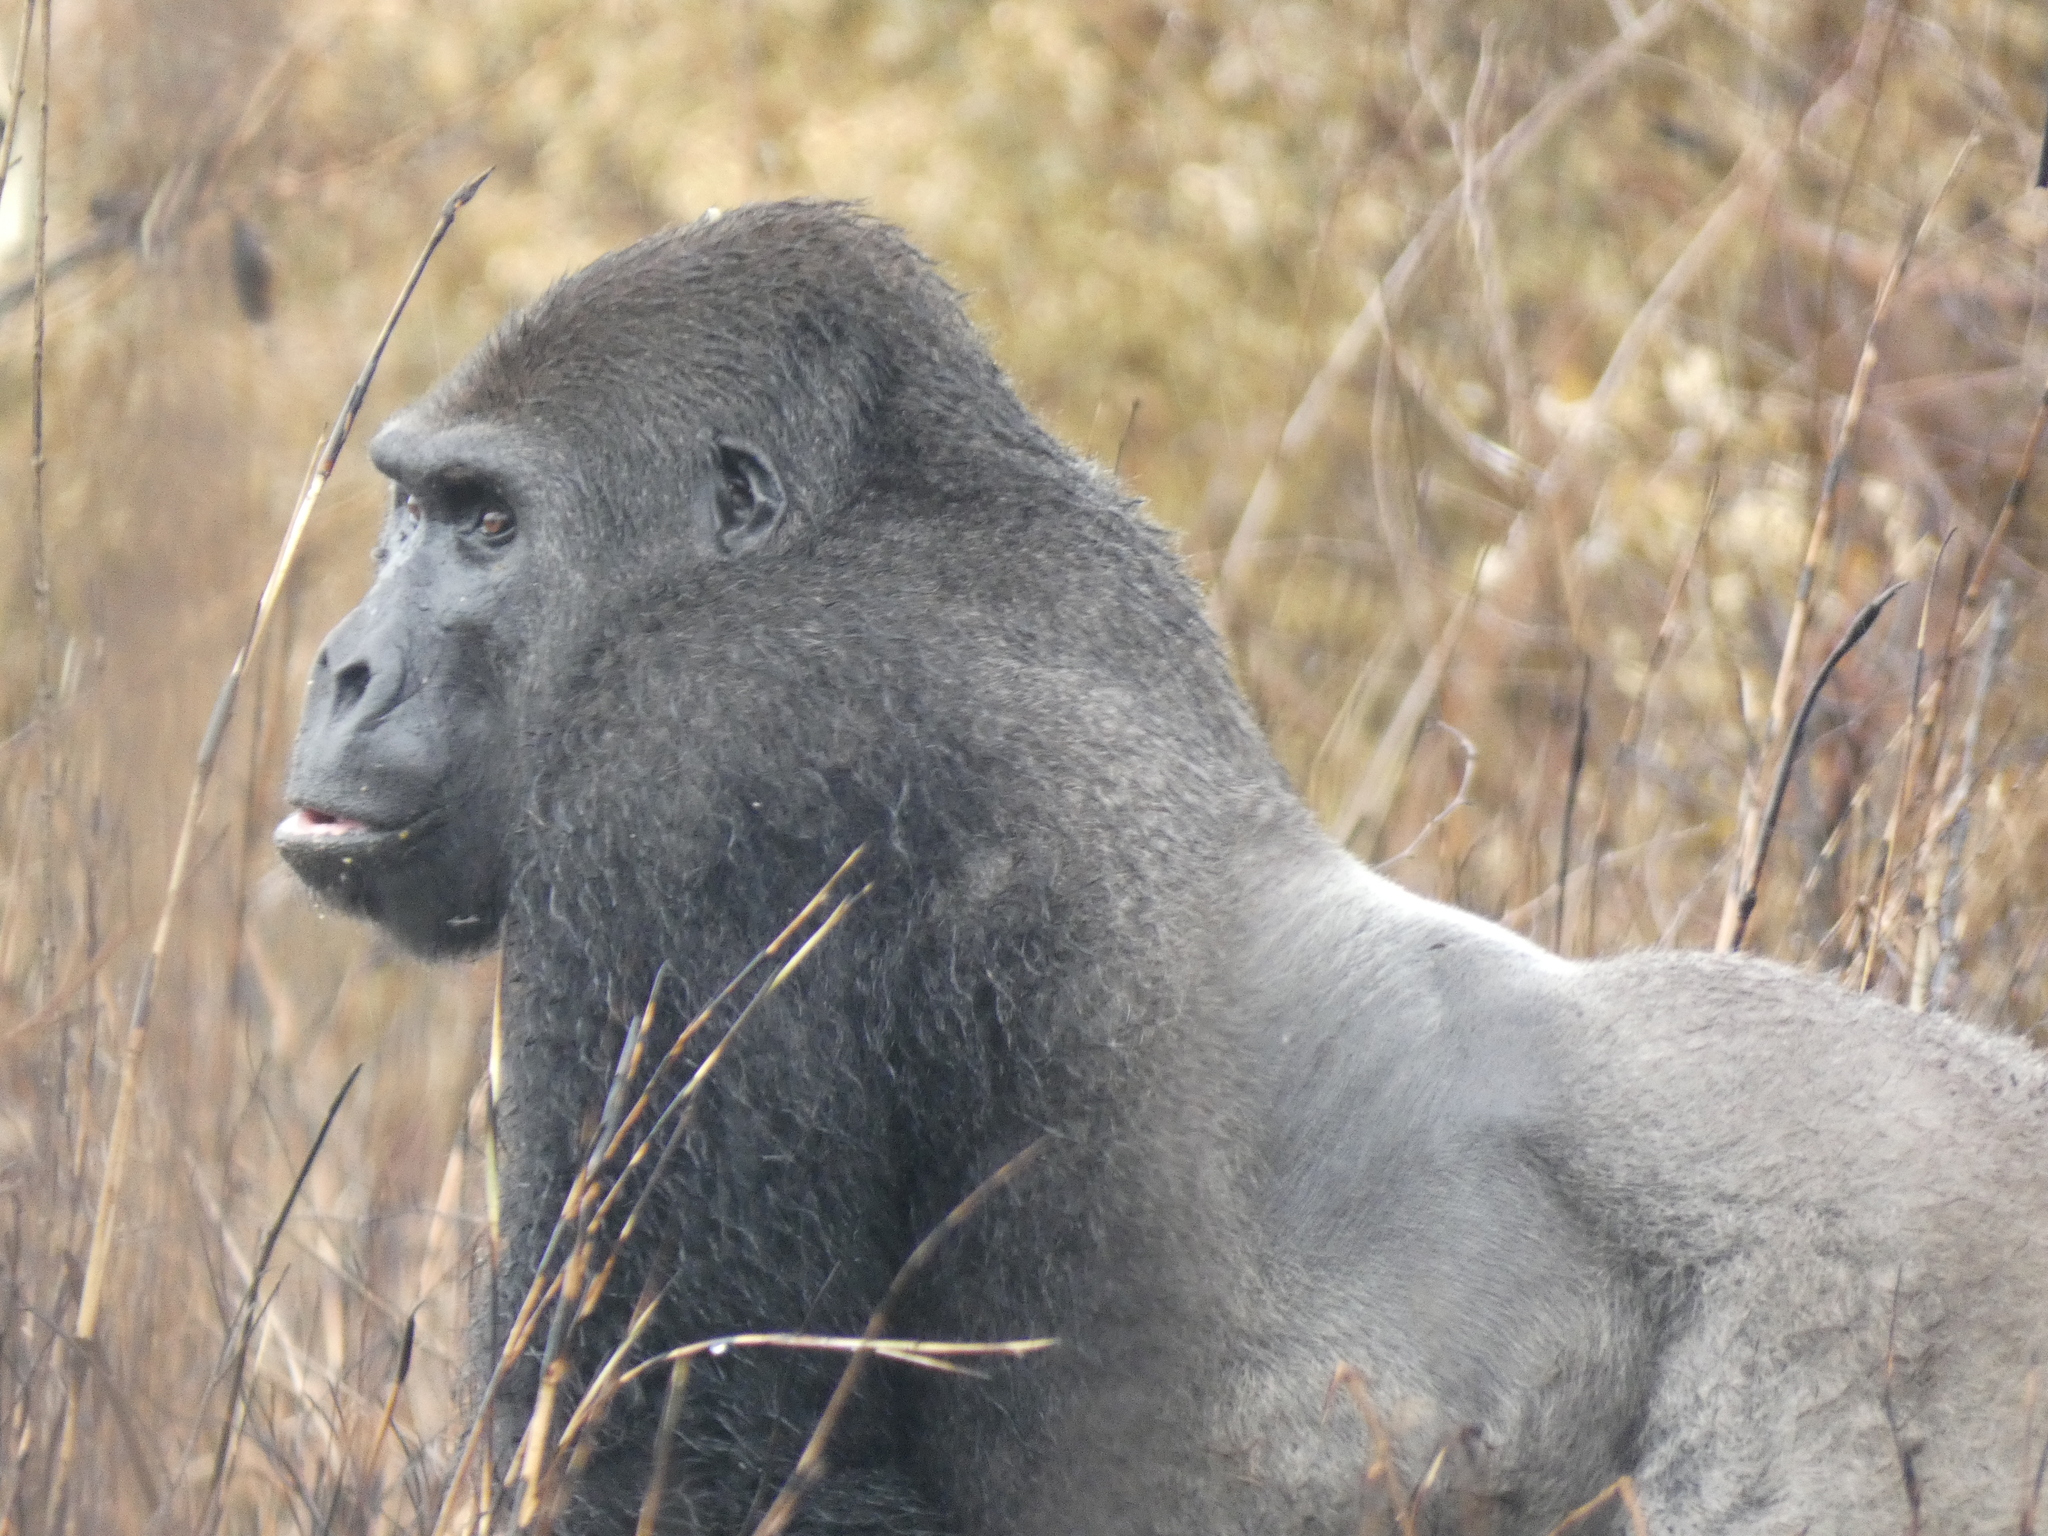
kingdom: Animalia
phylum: Chordata
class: Mammalia
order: Primates
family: Hominidae
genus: Gorilla
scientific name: Gorilla gorilla
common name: Western gorilla
